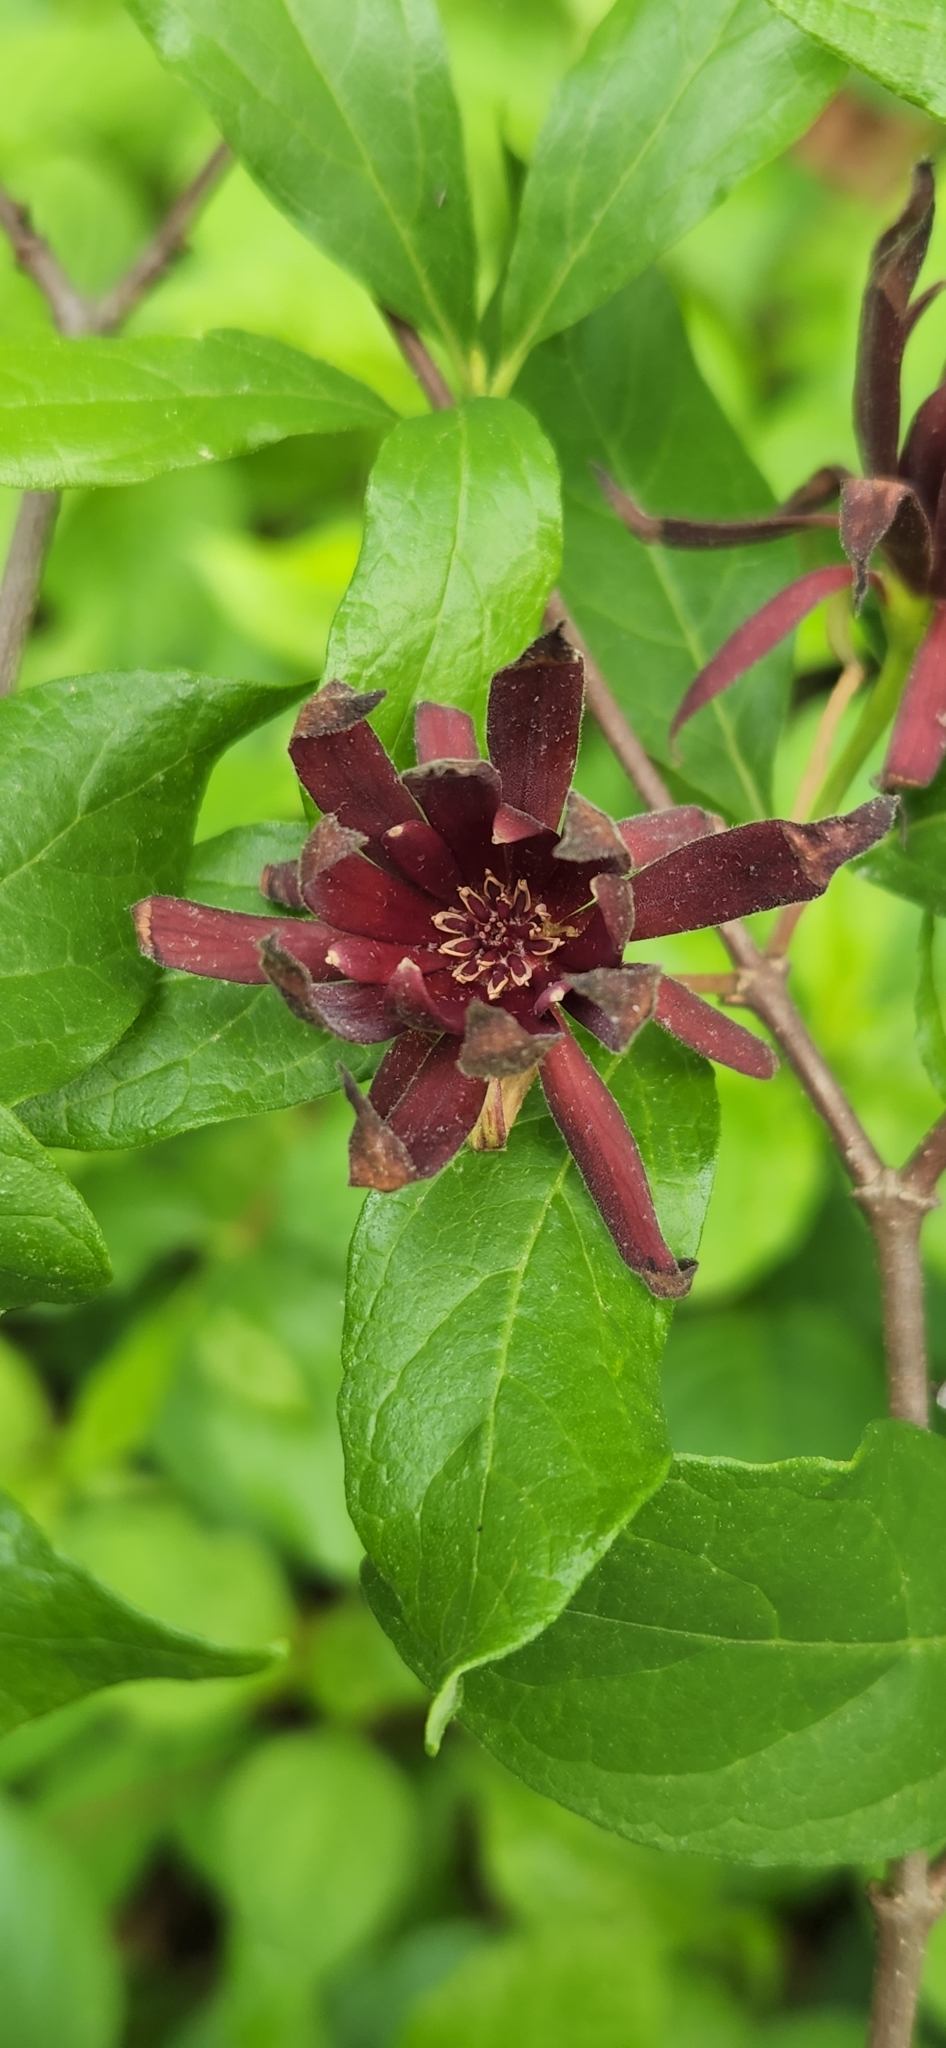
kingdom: Plantae
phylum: Tracheophyta
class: Magnoliopsida
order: Laurales
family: Calycanthaceae
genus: Calycanthus
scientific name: Calycanthus floridus
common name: Carolina-allspice
